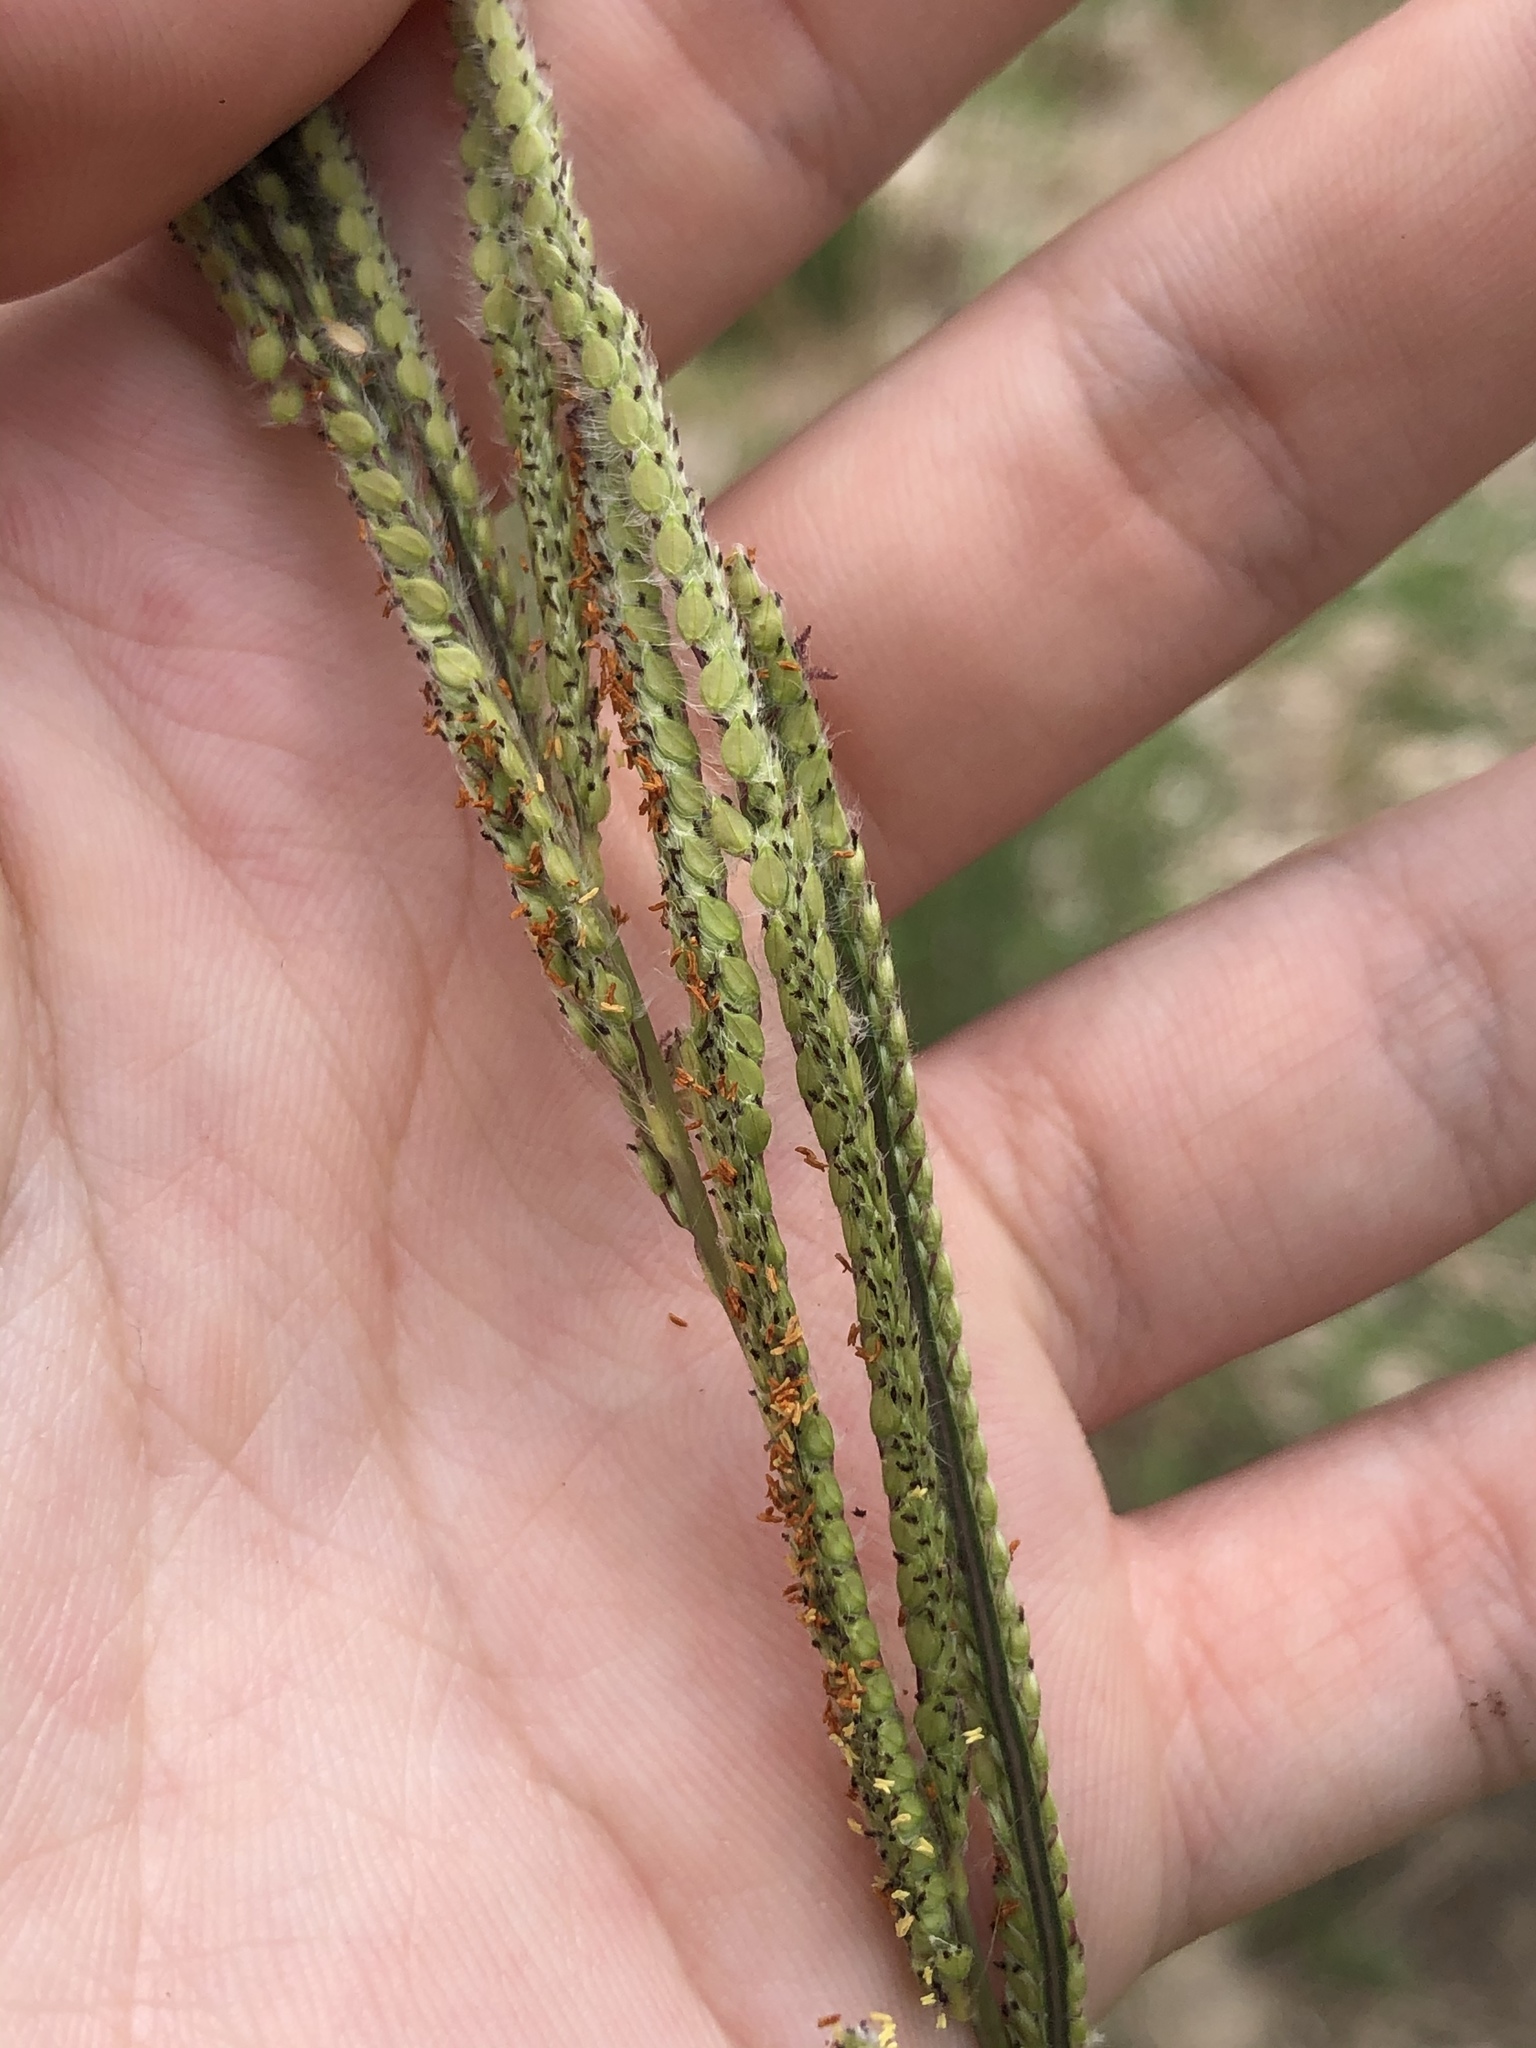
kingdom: Plantae
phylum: Tracheophyta
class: Liliopsida
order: Poales
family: Poaceae
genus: Paspalum
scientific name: Paspalum urvillei
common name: Vasey's grass
